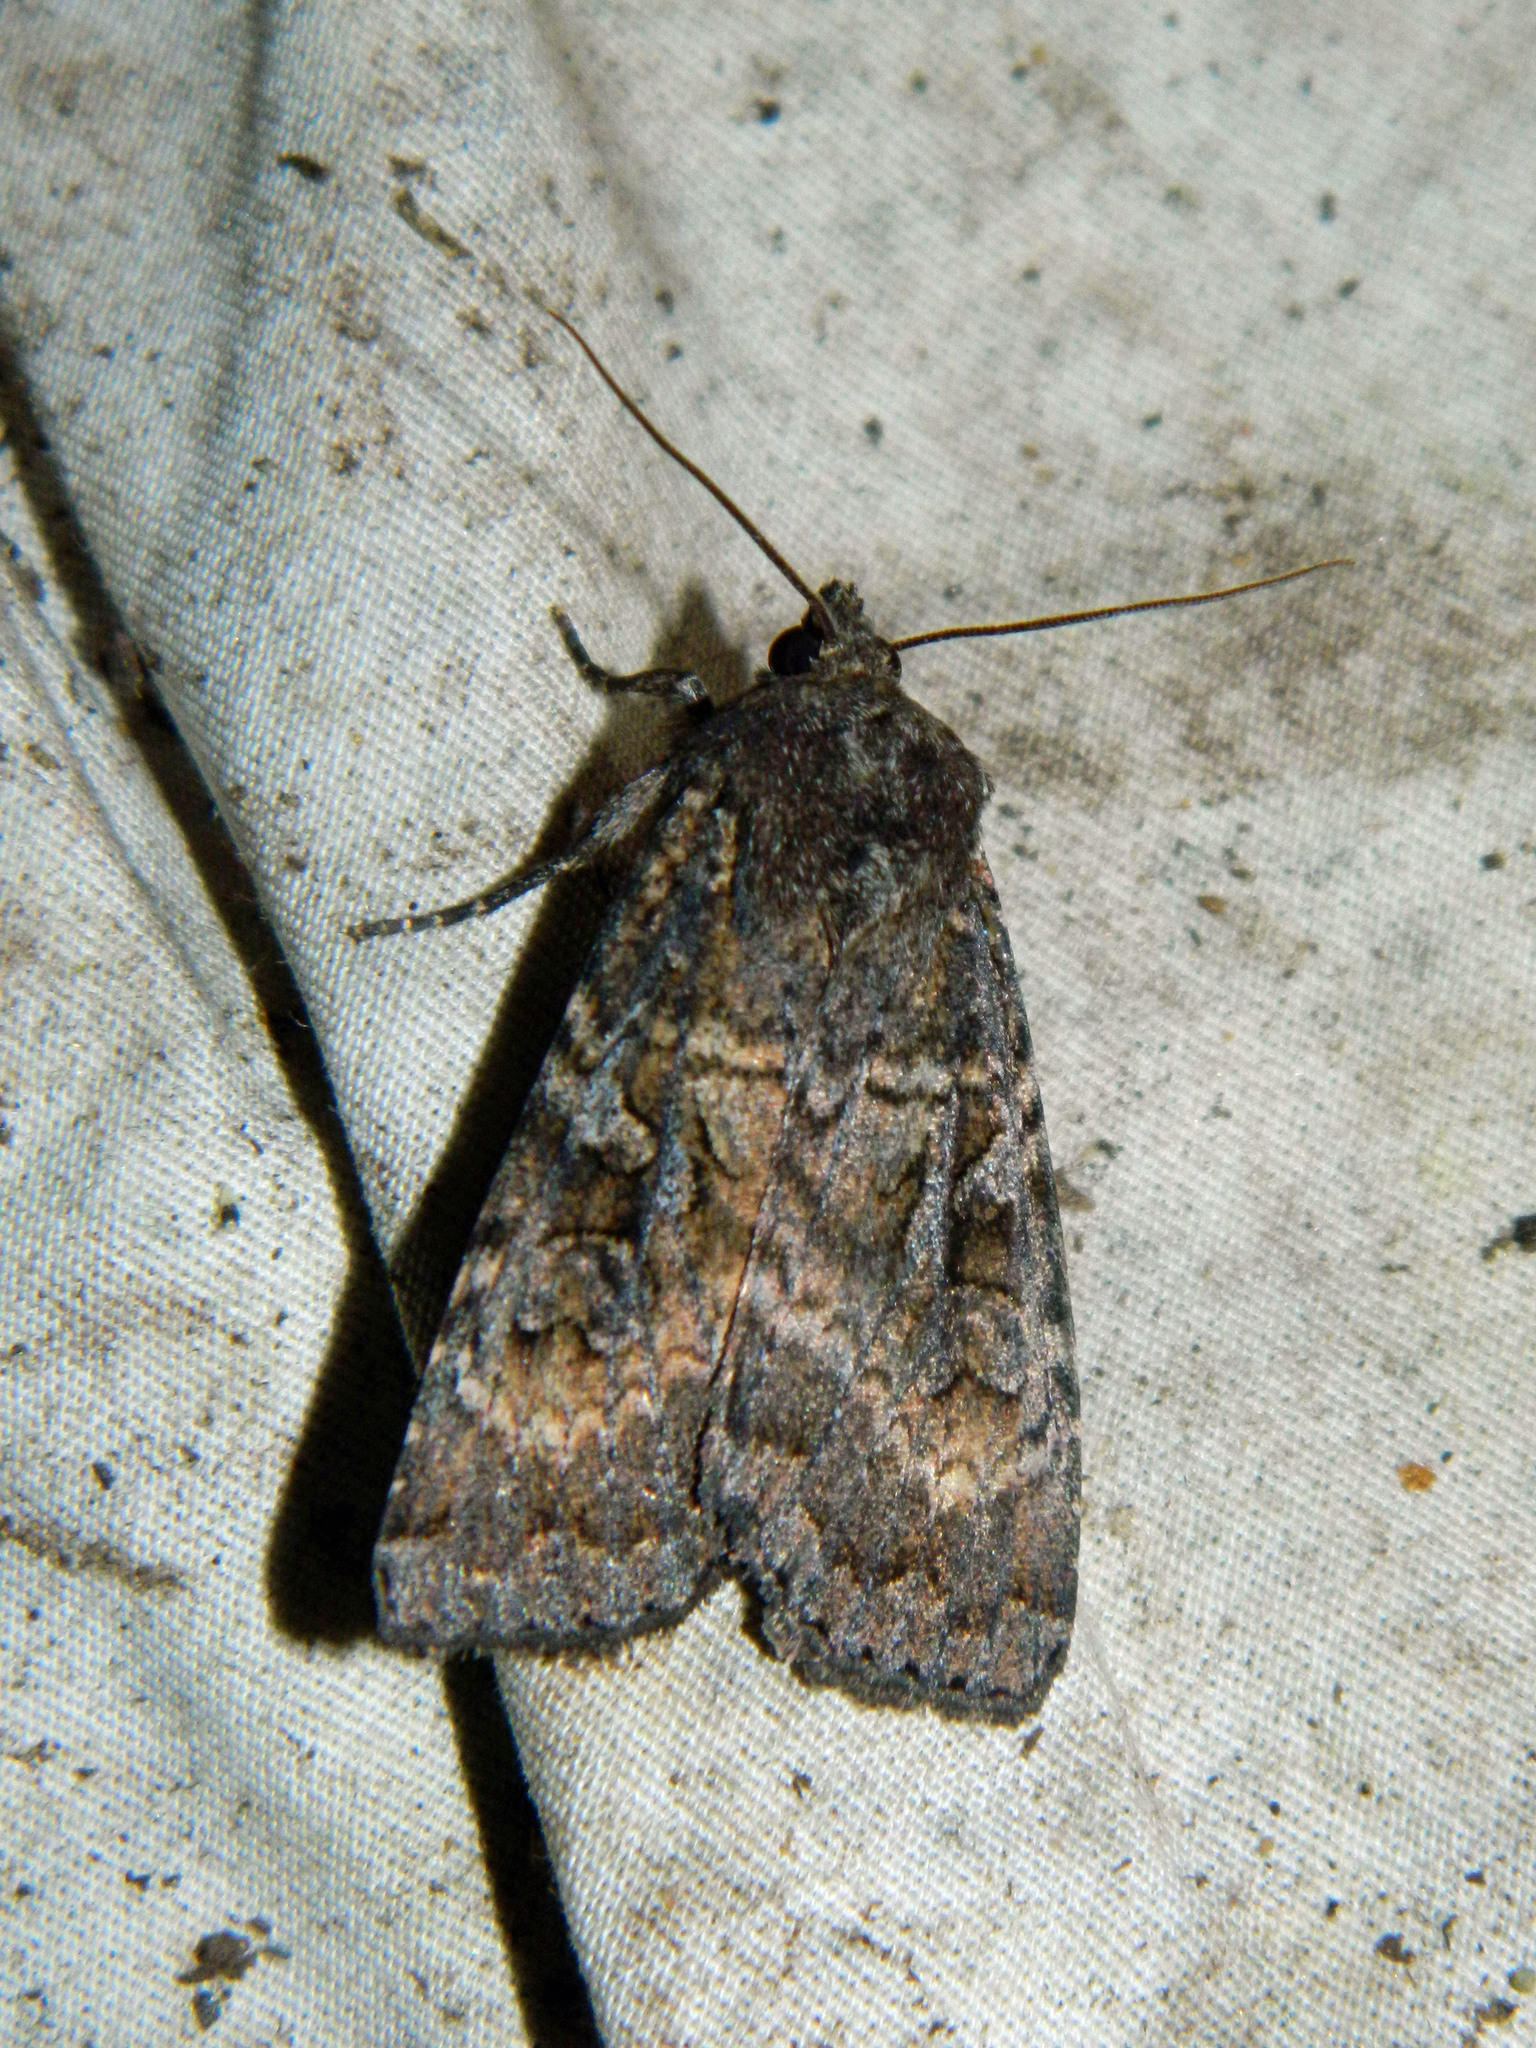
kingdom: Animalia
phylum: Arthropoda
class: Insecta
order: Lepidoptera
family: Noctuidae
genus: Eurois
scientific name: Eurois astricta
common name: Great brown dart
